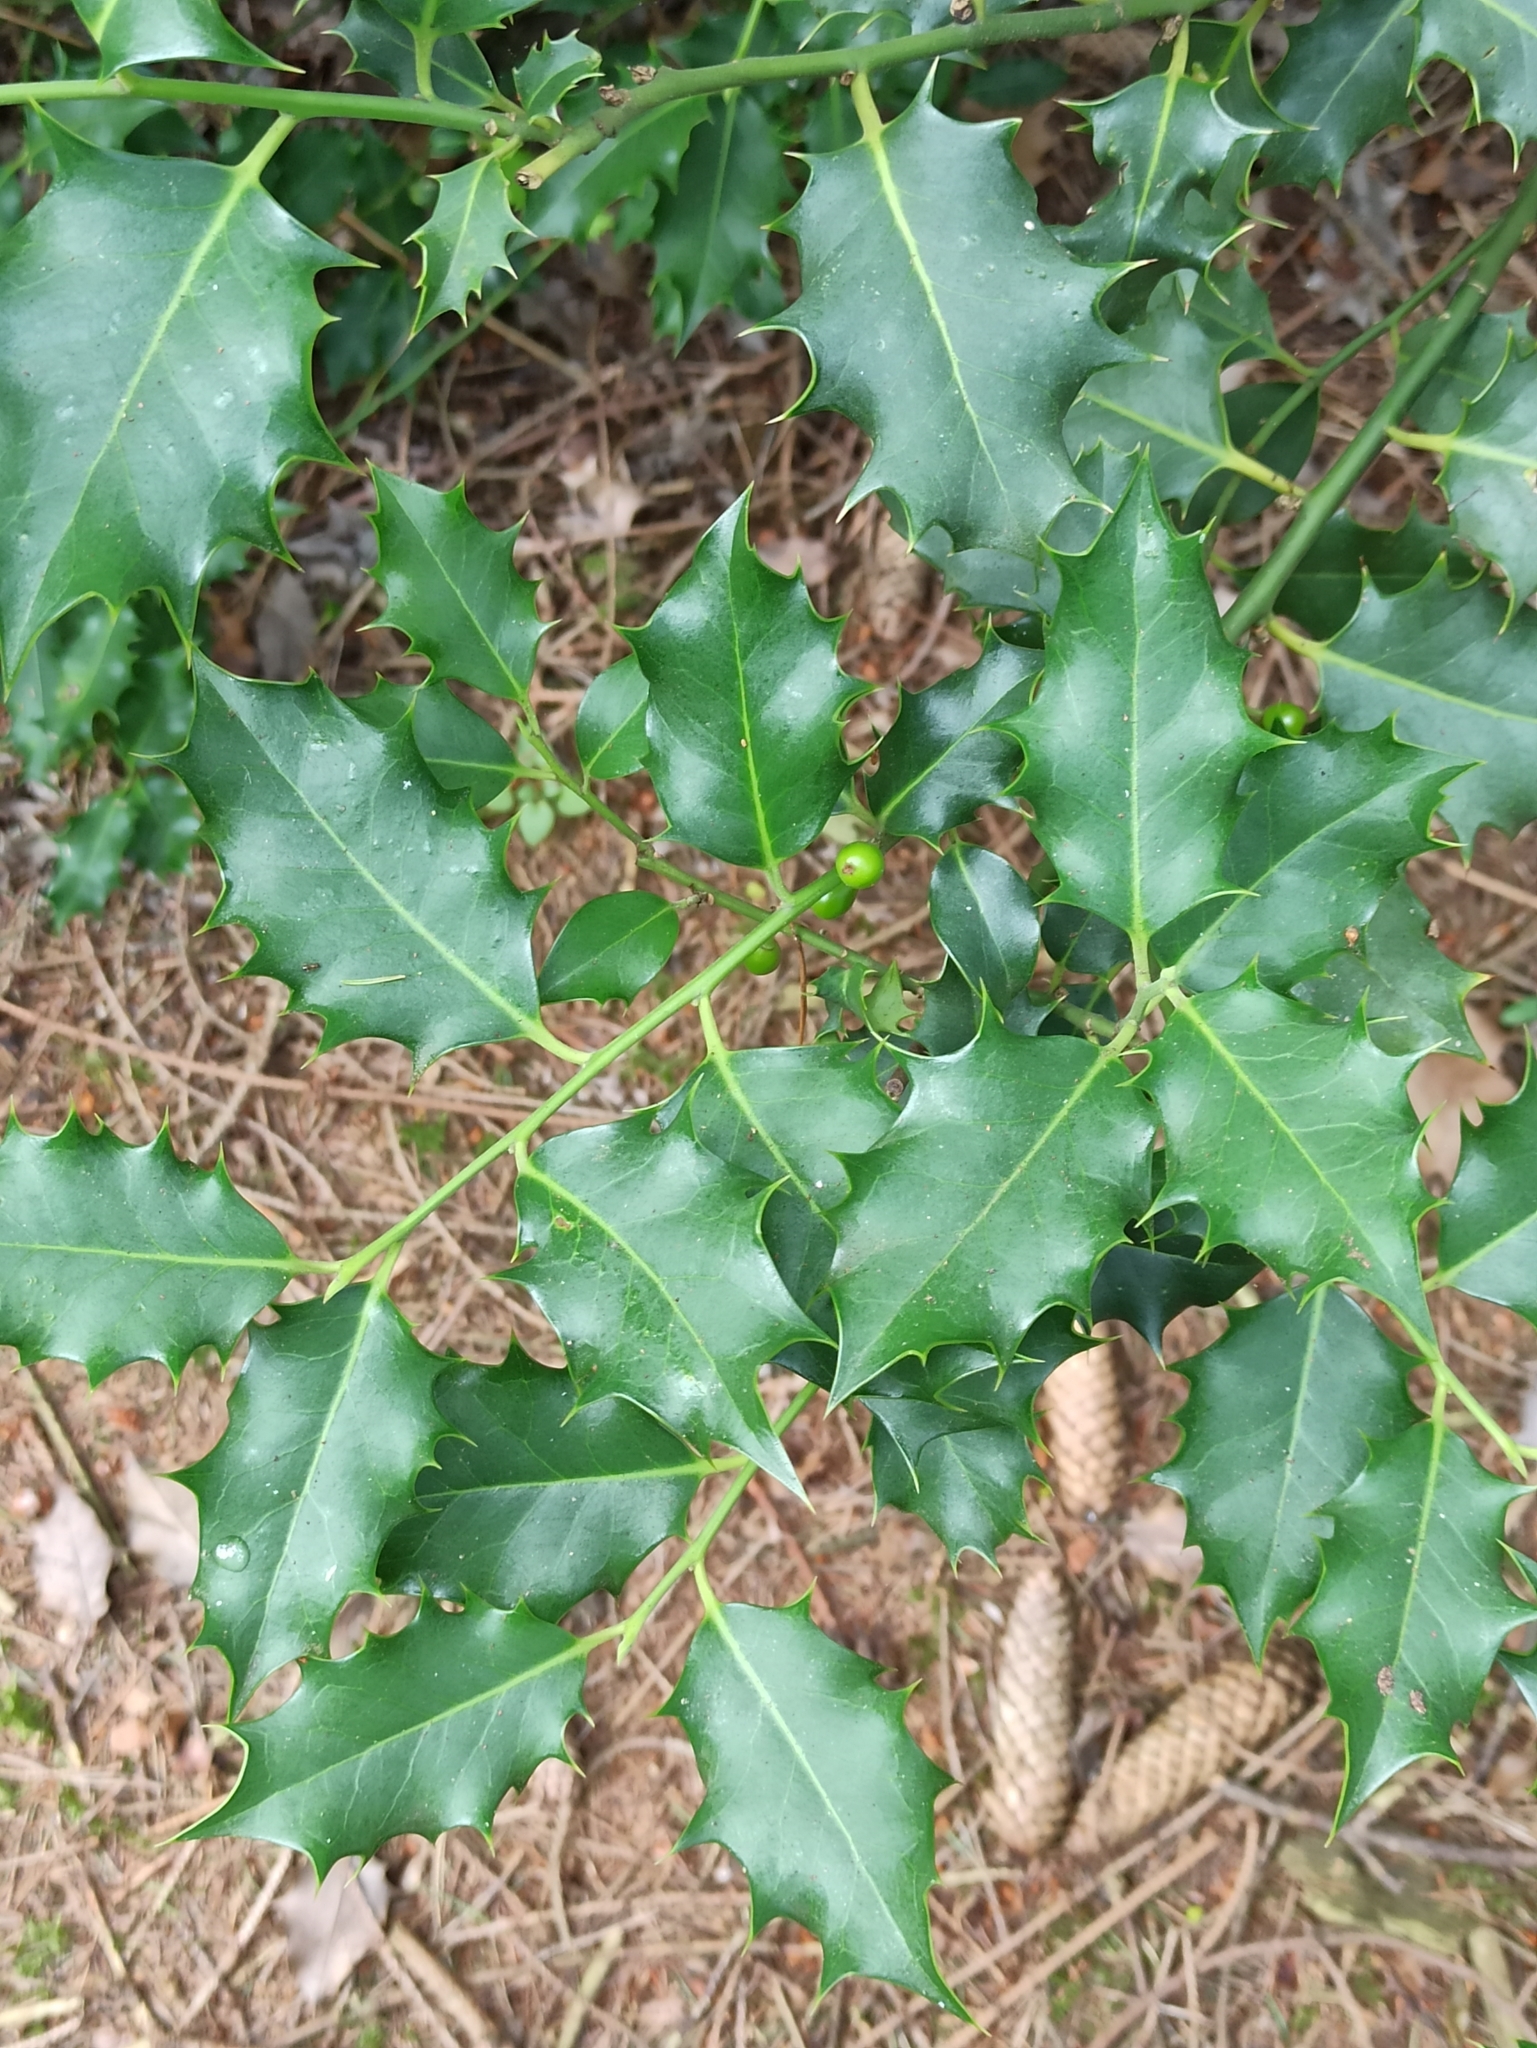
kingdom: Plantae
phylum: Tracheophyta
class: Magnoliopsida
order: Aquifoliales
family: Aquifoliaceae
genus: Ilex
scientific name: Ilex aquifolium
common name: English holly
